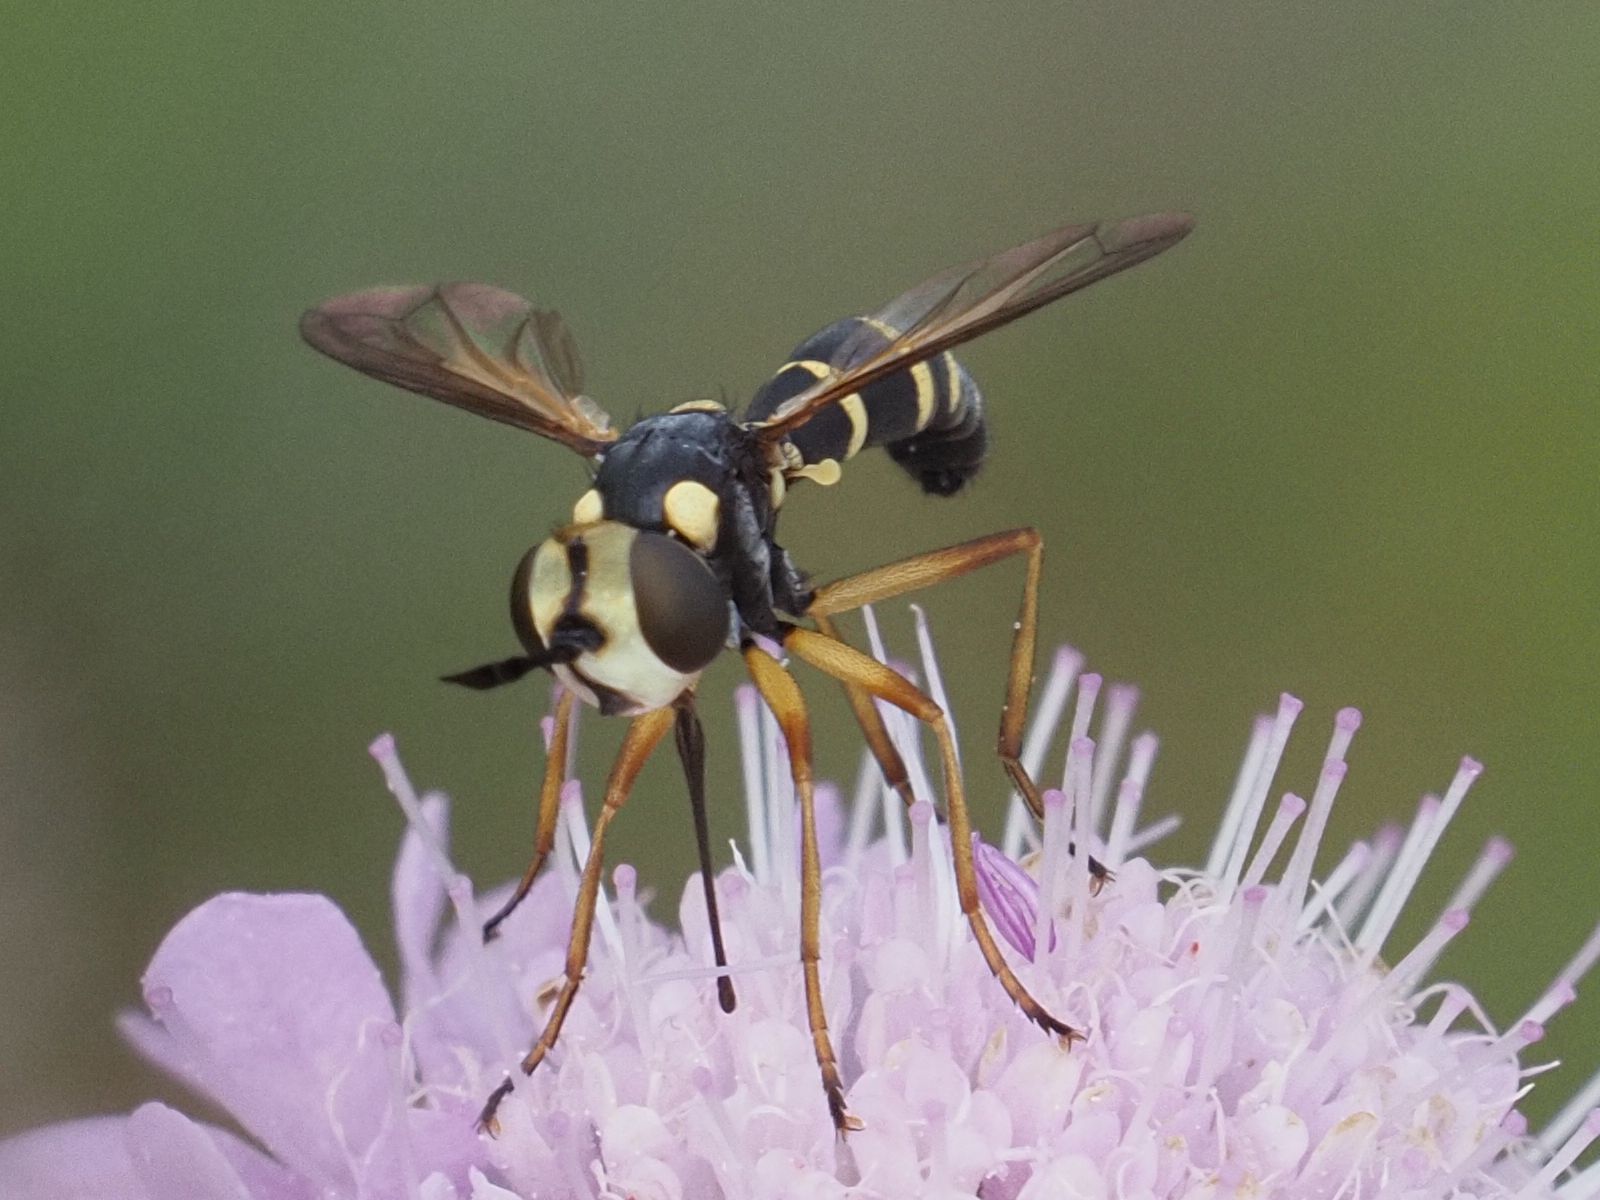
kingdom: Animalia
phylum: Arthropoda
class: Insecta
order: Diptera
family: Conopidae
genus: Conops
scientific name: Conops scutellatus
